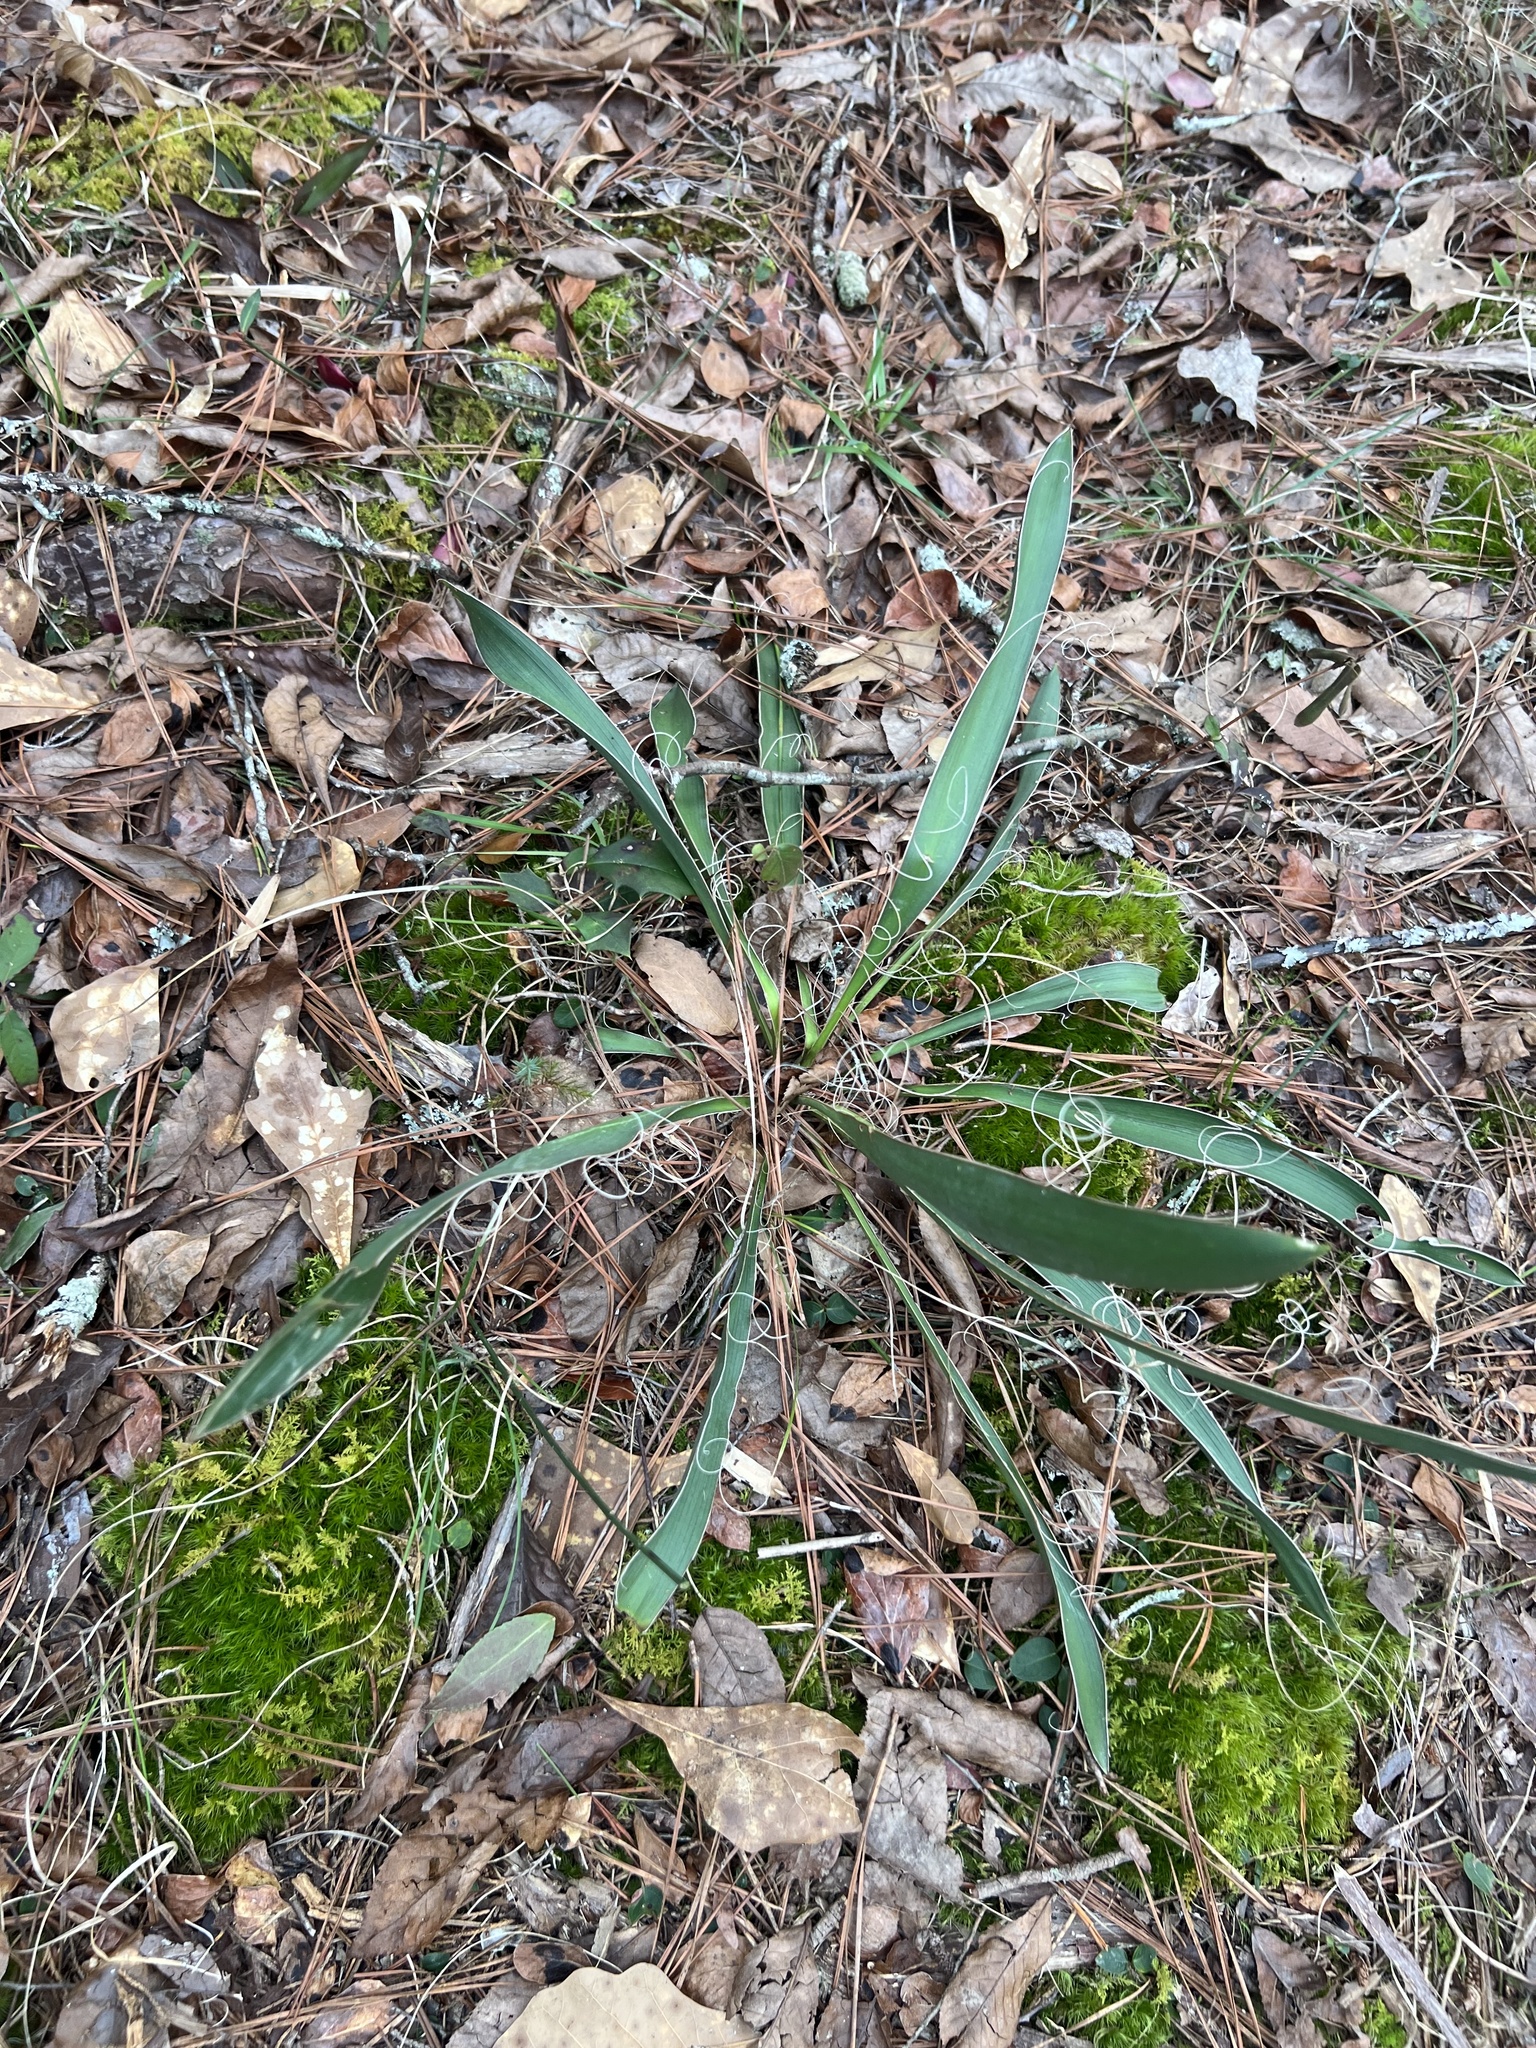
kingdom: Plantae
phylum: Tracheophyta
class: Liliopsida
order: Asparagales
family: Asparagaceae
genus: Yucca
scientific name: Yucca filamentosa
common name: Adam's-needle
